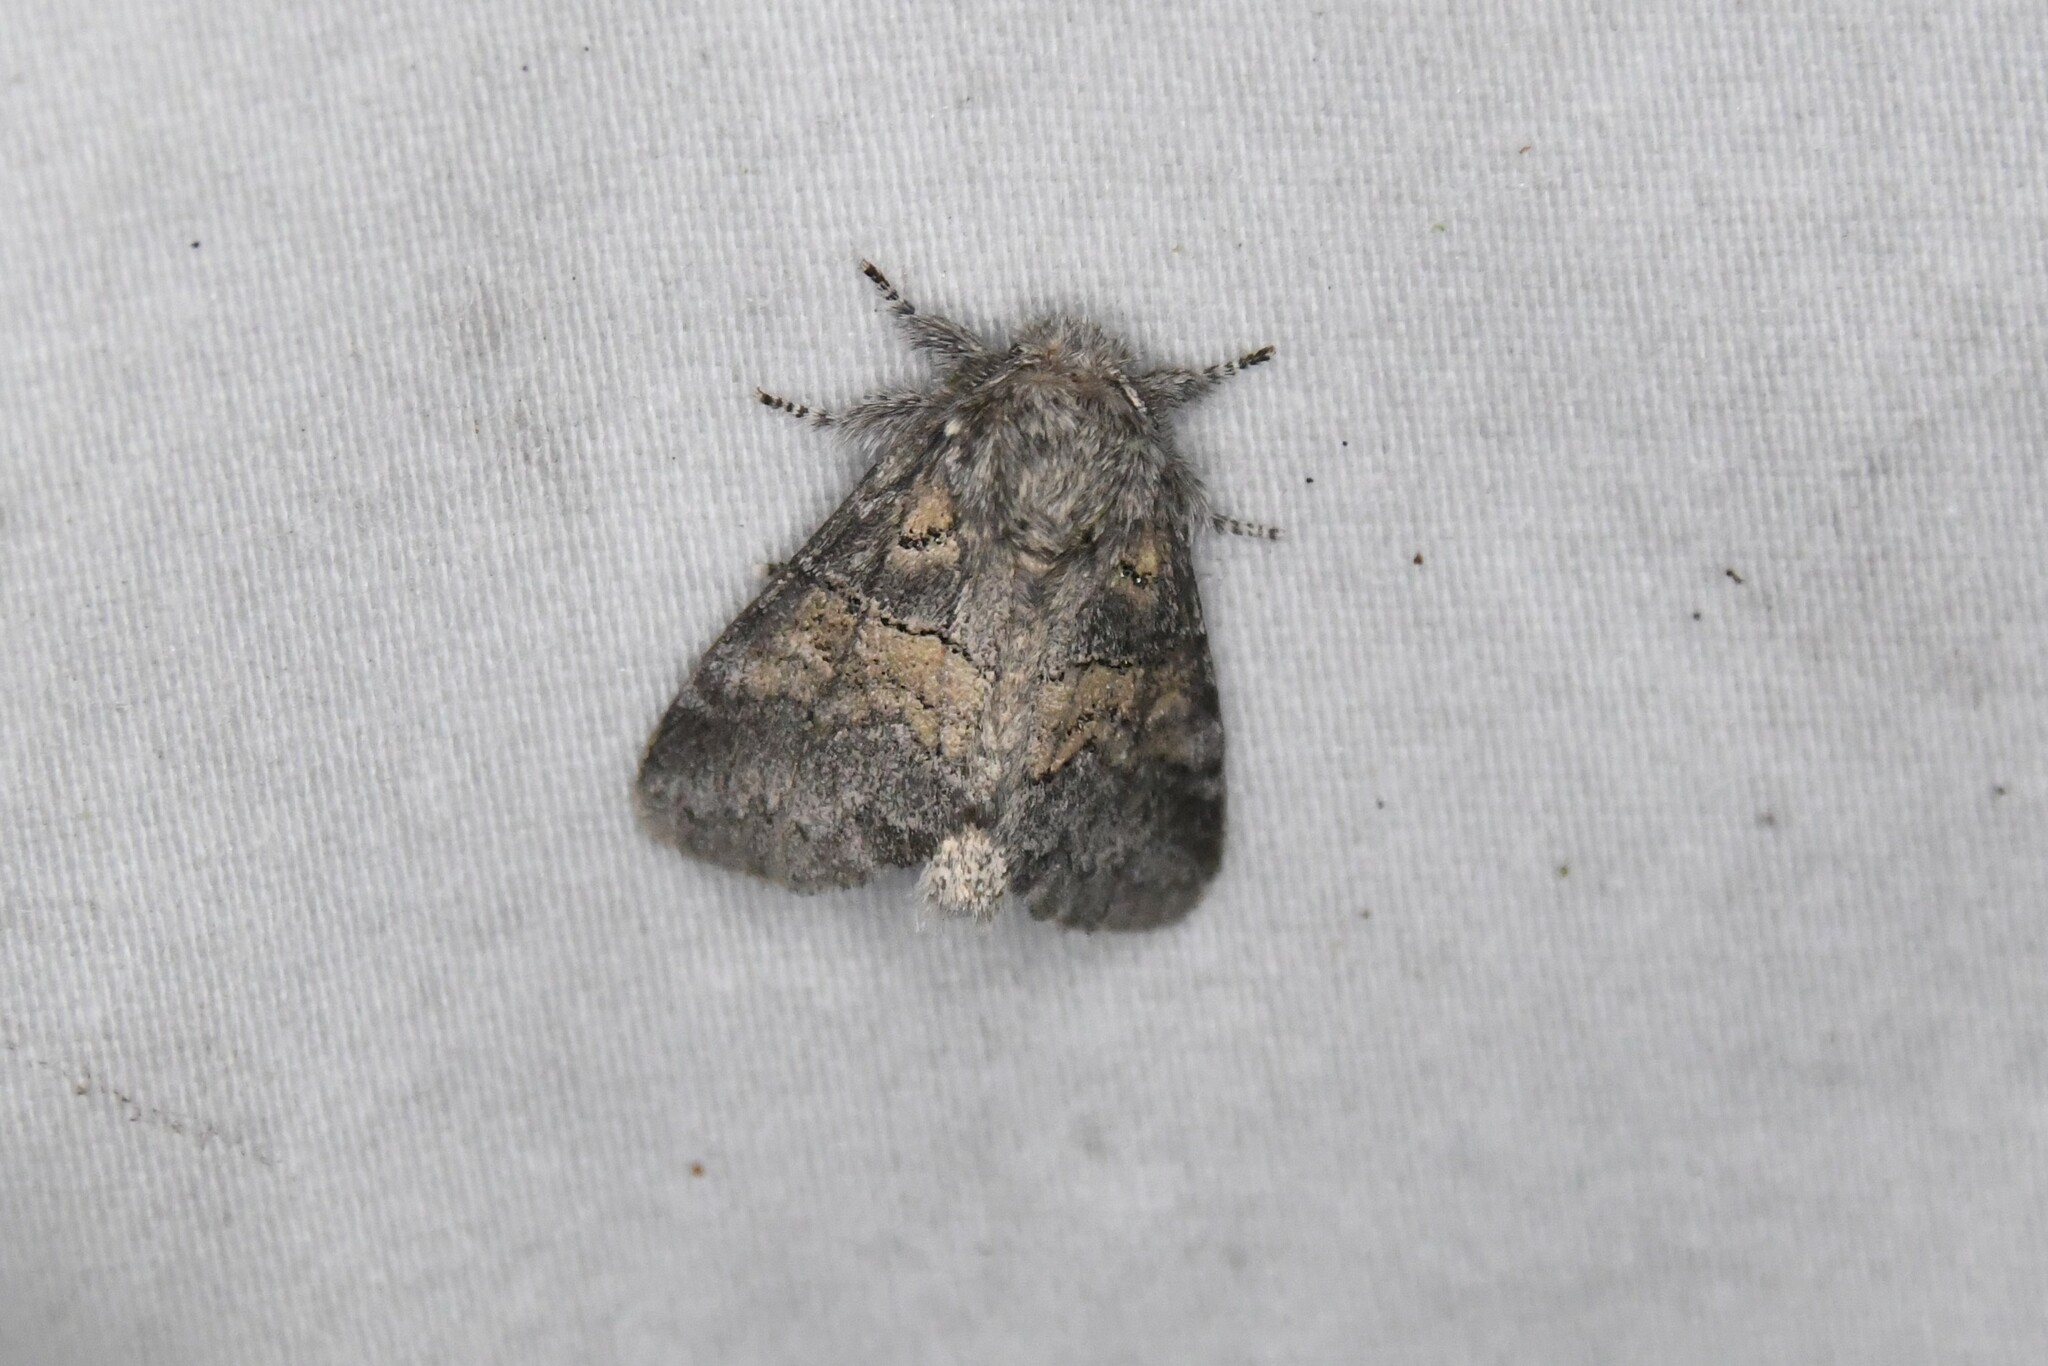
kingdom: Animalia
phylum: Arthropoda
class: Insecta
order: Lepidoptera
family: Notodontidae
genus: Gluphisia
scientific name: Gluphisia septentrionis
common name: Common gluphisia
